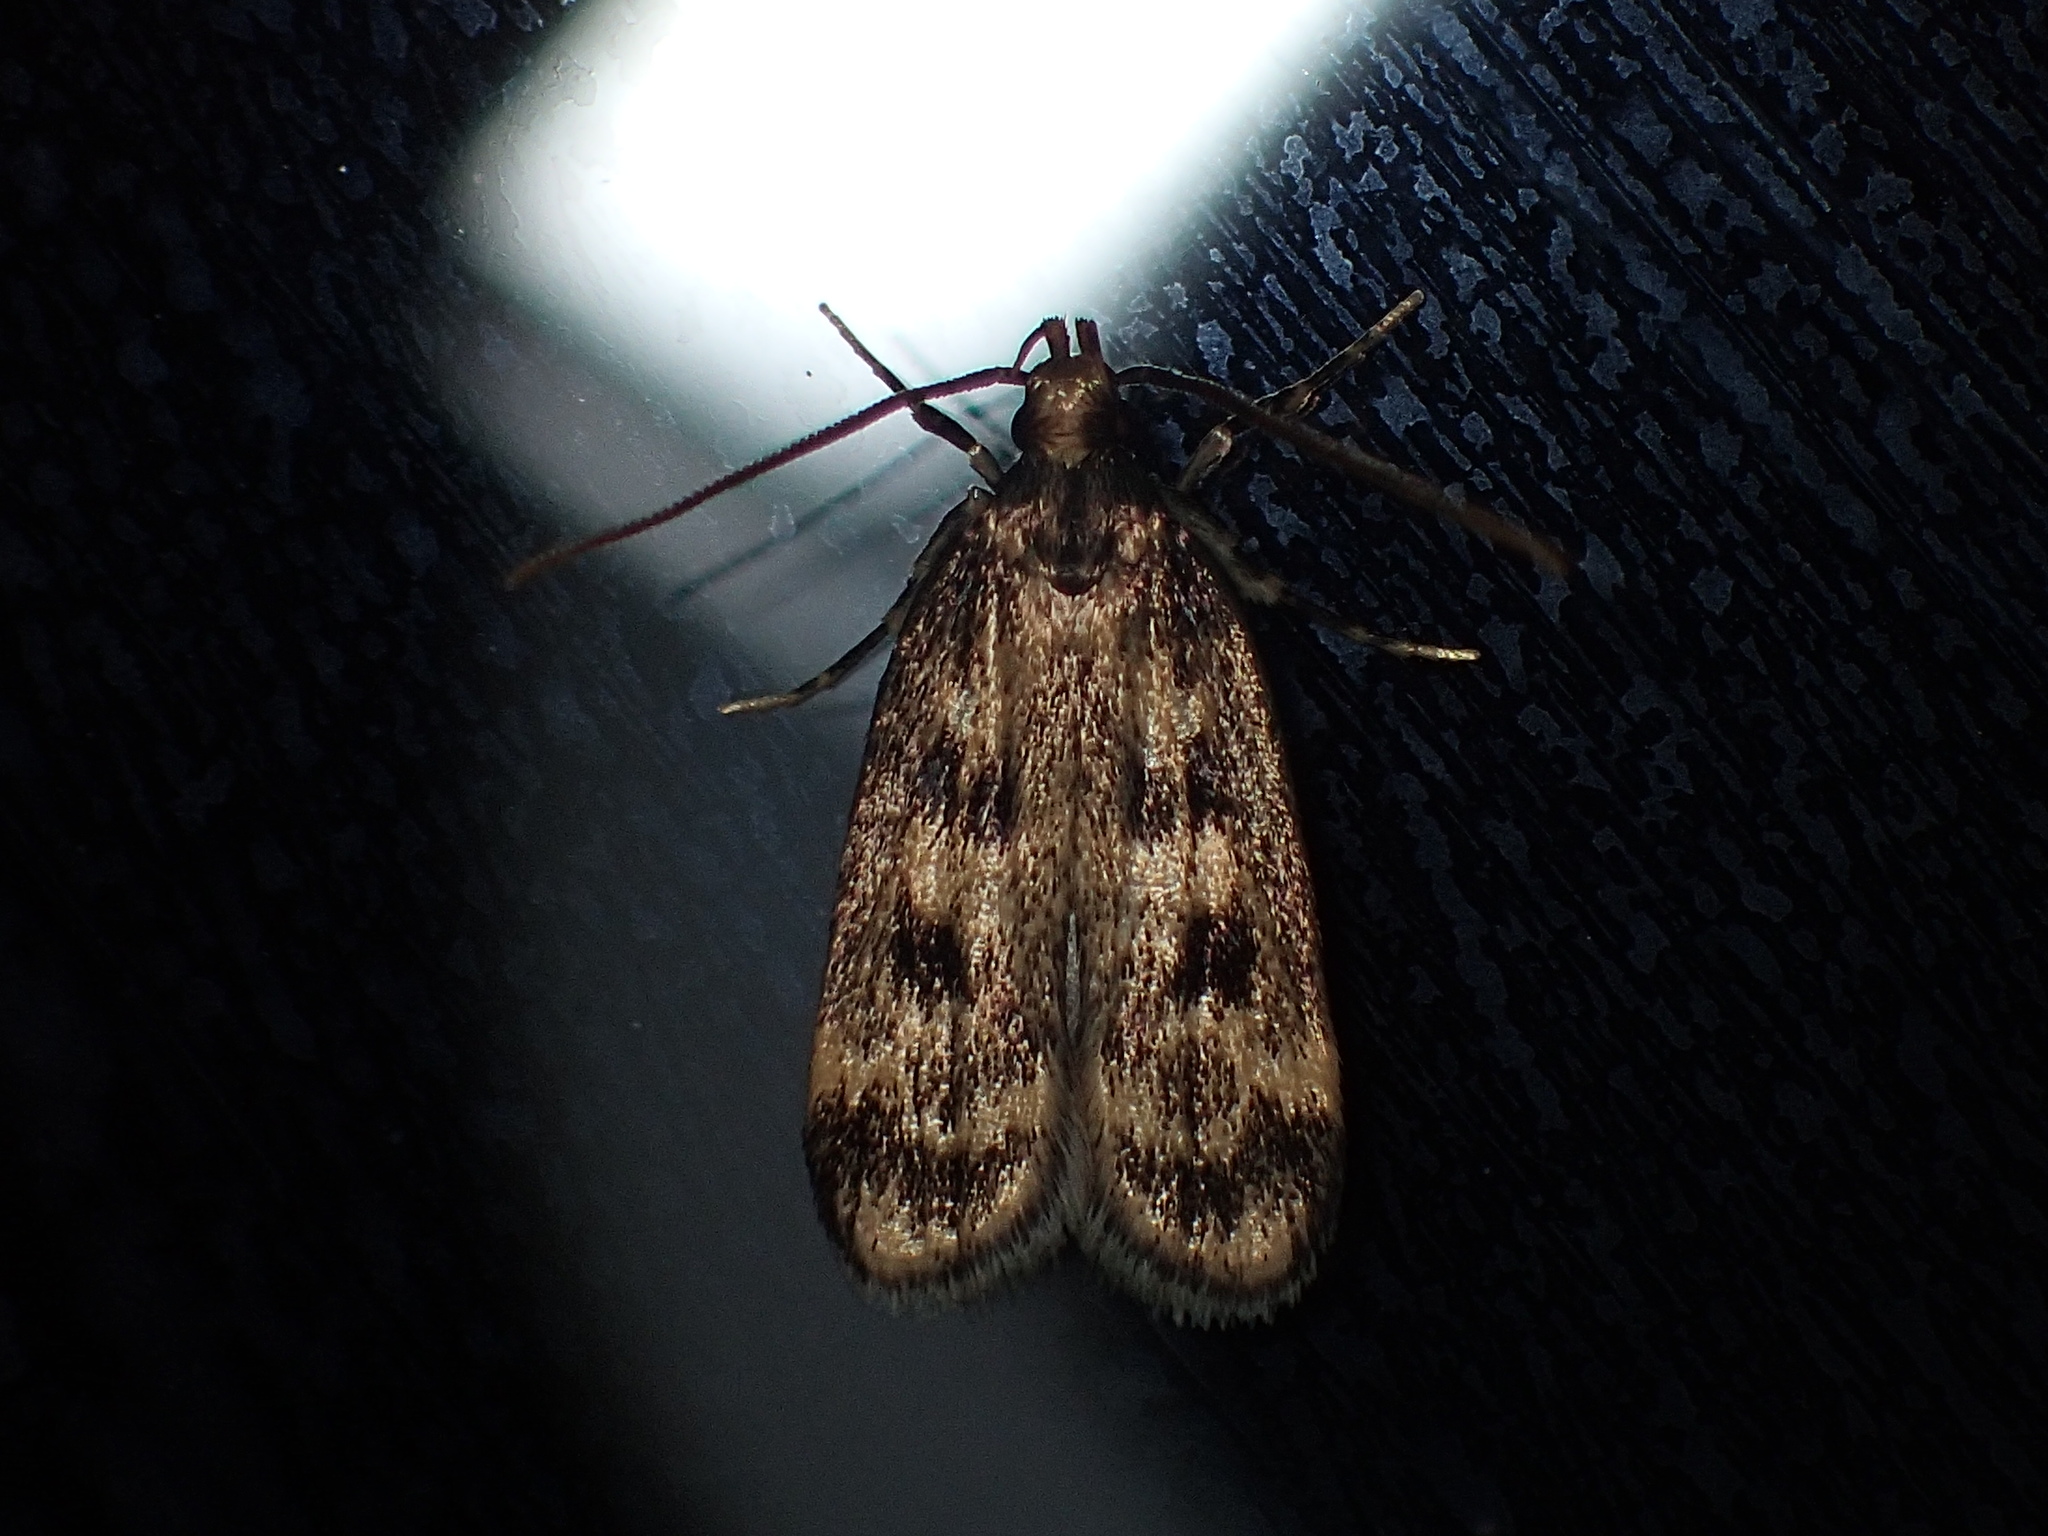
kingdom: Animalia
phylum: Arthropoda
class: Insecta
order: Lepidoptera
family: Lecithoceridae
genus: Martyringa
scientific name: Martyringa latipennis
